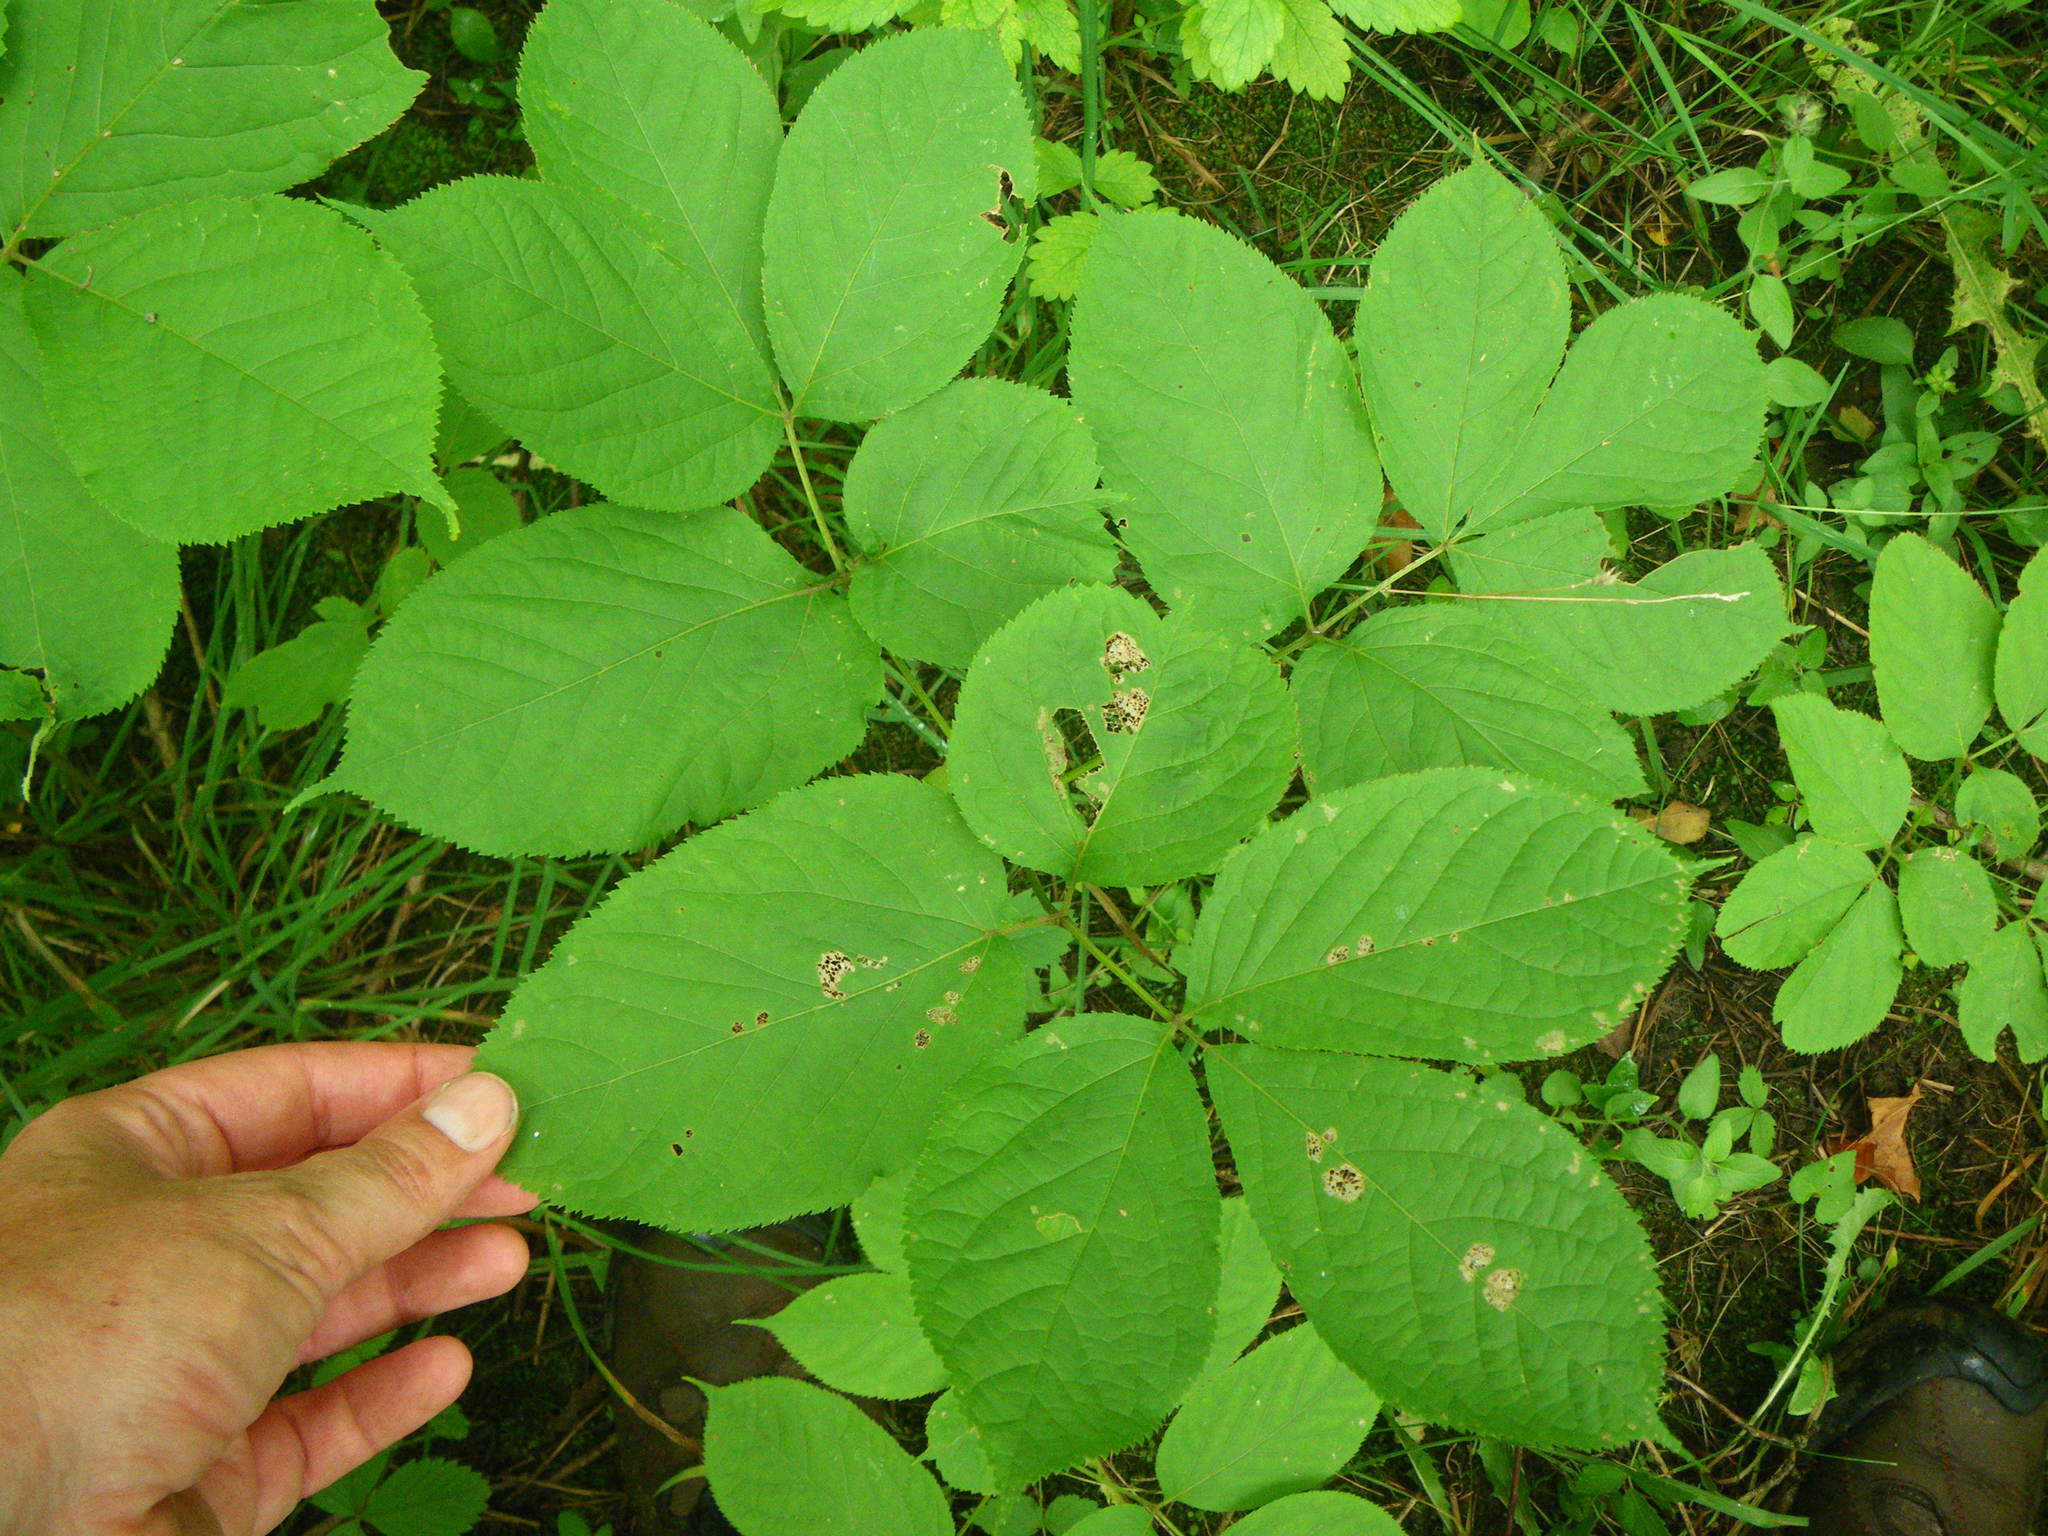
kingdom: Plantae
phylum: Tracheophyta
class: Magnoliopsida
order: Apiales
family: Araliaceae
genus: Aralia
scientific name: Aralia nudicaulis
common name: Wild sarsaparilla
